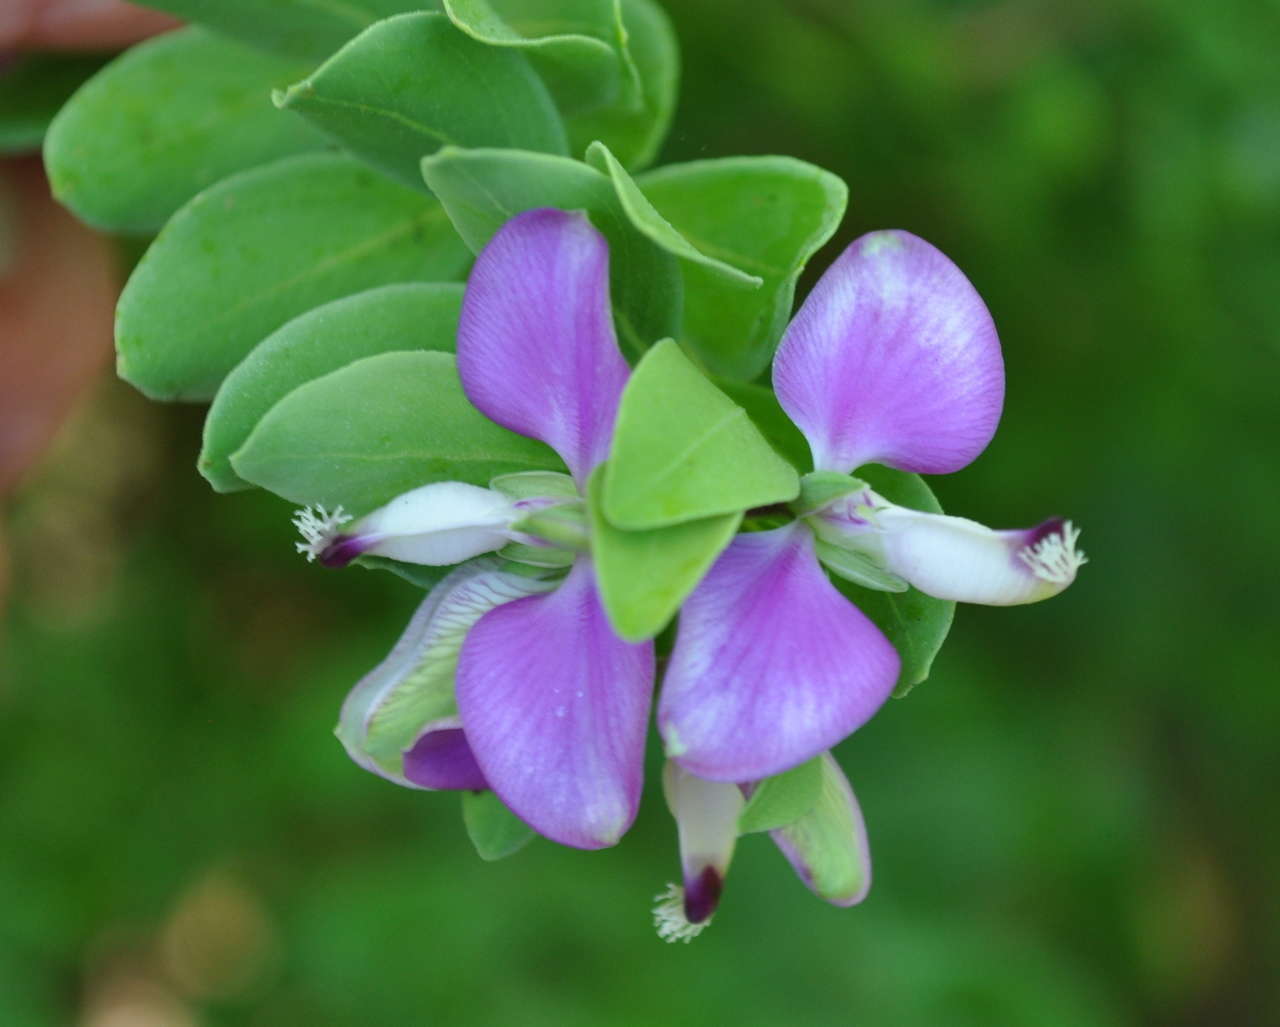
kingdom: Plantae
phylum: Tracheophyta
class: Magnoliopsida
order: Fabales
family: Polygalaceae
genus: Polygala
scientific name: Polygala myrtifolia
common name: Myrtle-leaf milkwort
